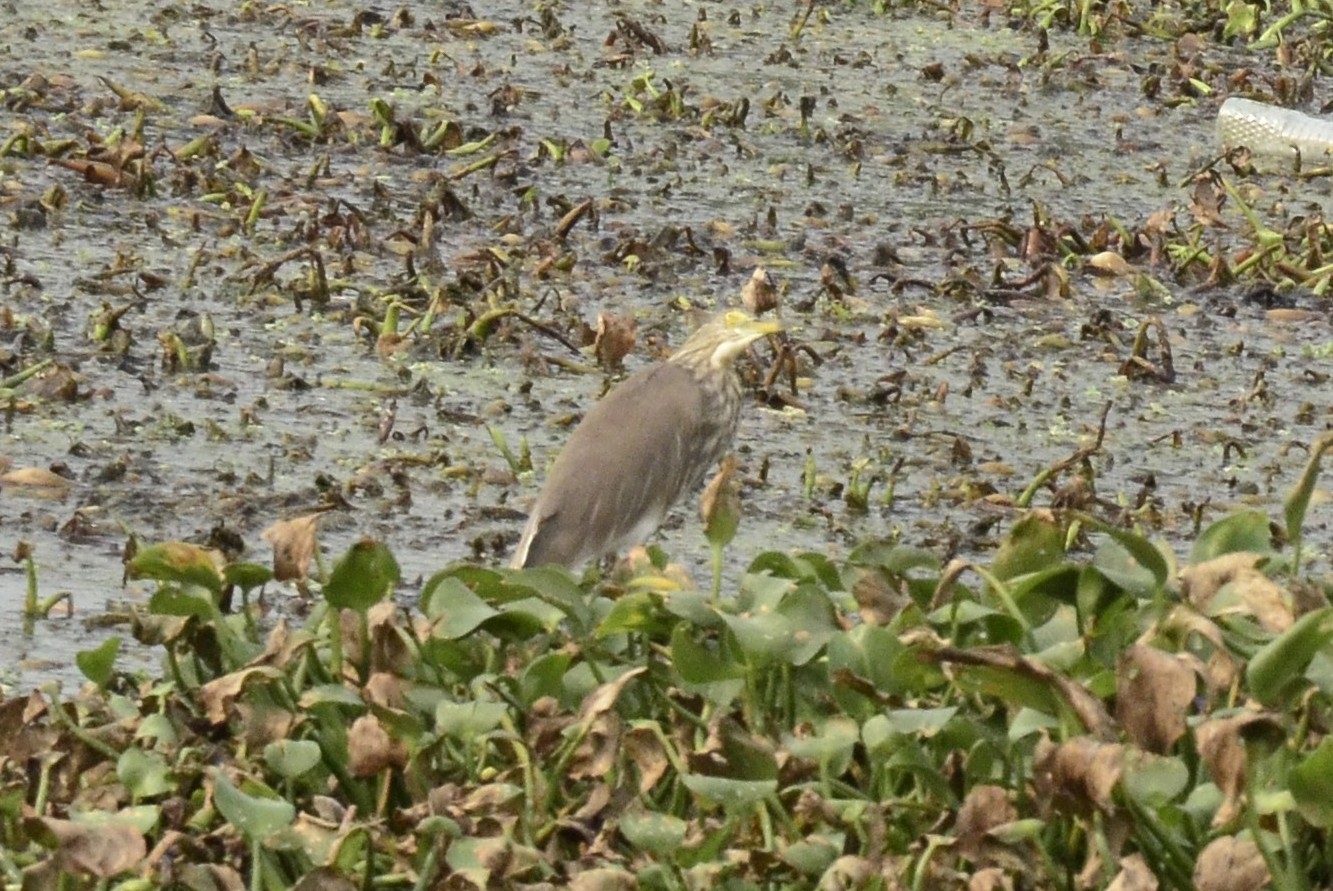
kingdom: Animalia
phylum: Chordata
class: Aves
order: Pelecaniformes
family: Ardeidae
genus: Ardeola
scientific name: Ardeola grayii
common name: Indian pond heron
